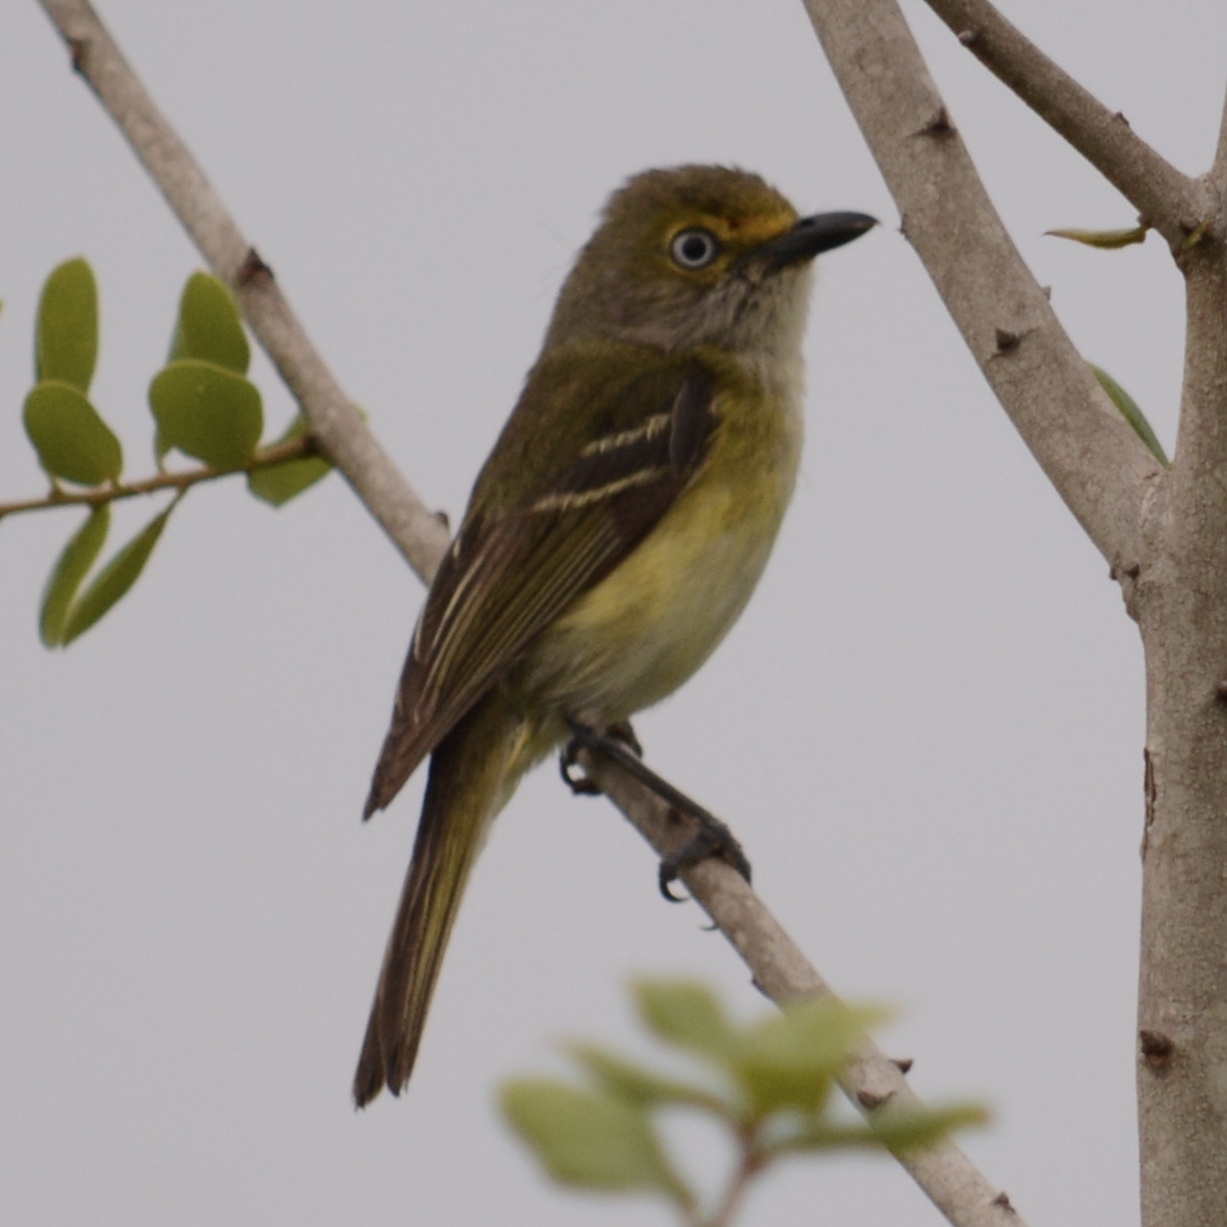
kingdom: Animalia
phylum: Chordata
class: Aves
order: Passeriformes
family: Vireonidae
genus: Vireo
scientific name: Vireo griseus
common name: White-eyed vireo
